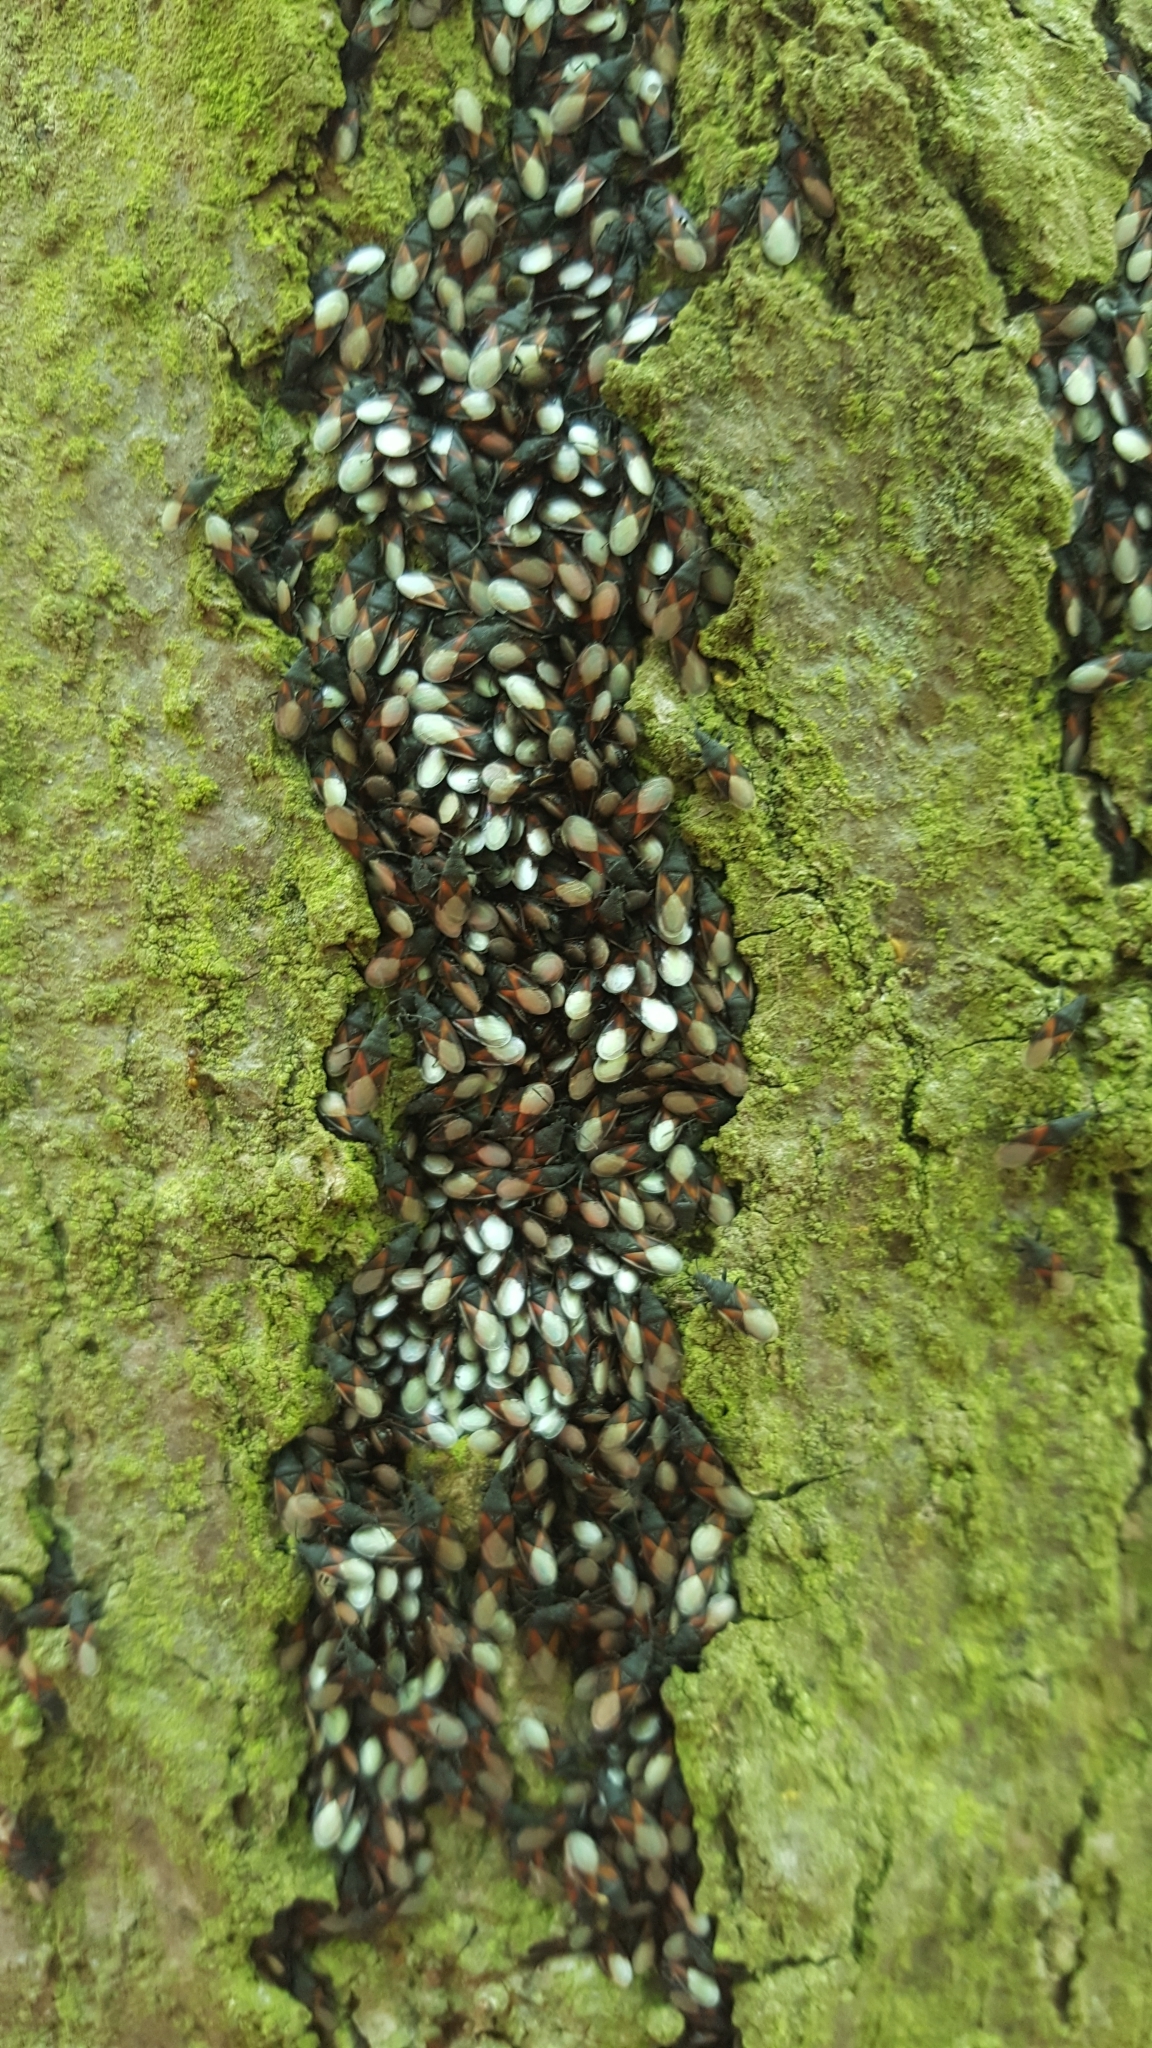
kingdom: Animalia
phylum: Arthropoda
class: Insecta
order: Hemiptera
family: Oxycarenidae
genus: Oxycarenus
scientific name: Oxycarenus lavaterae
